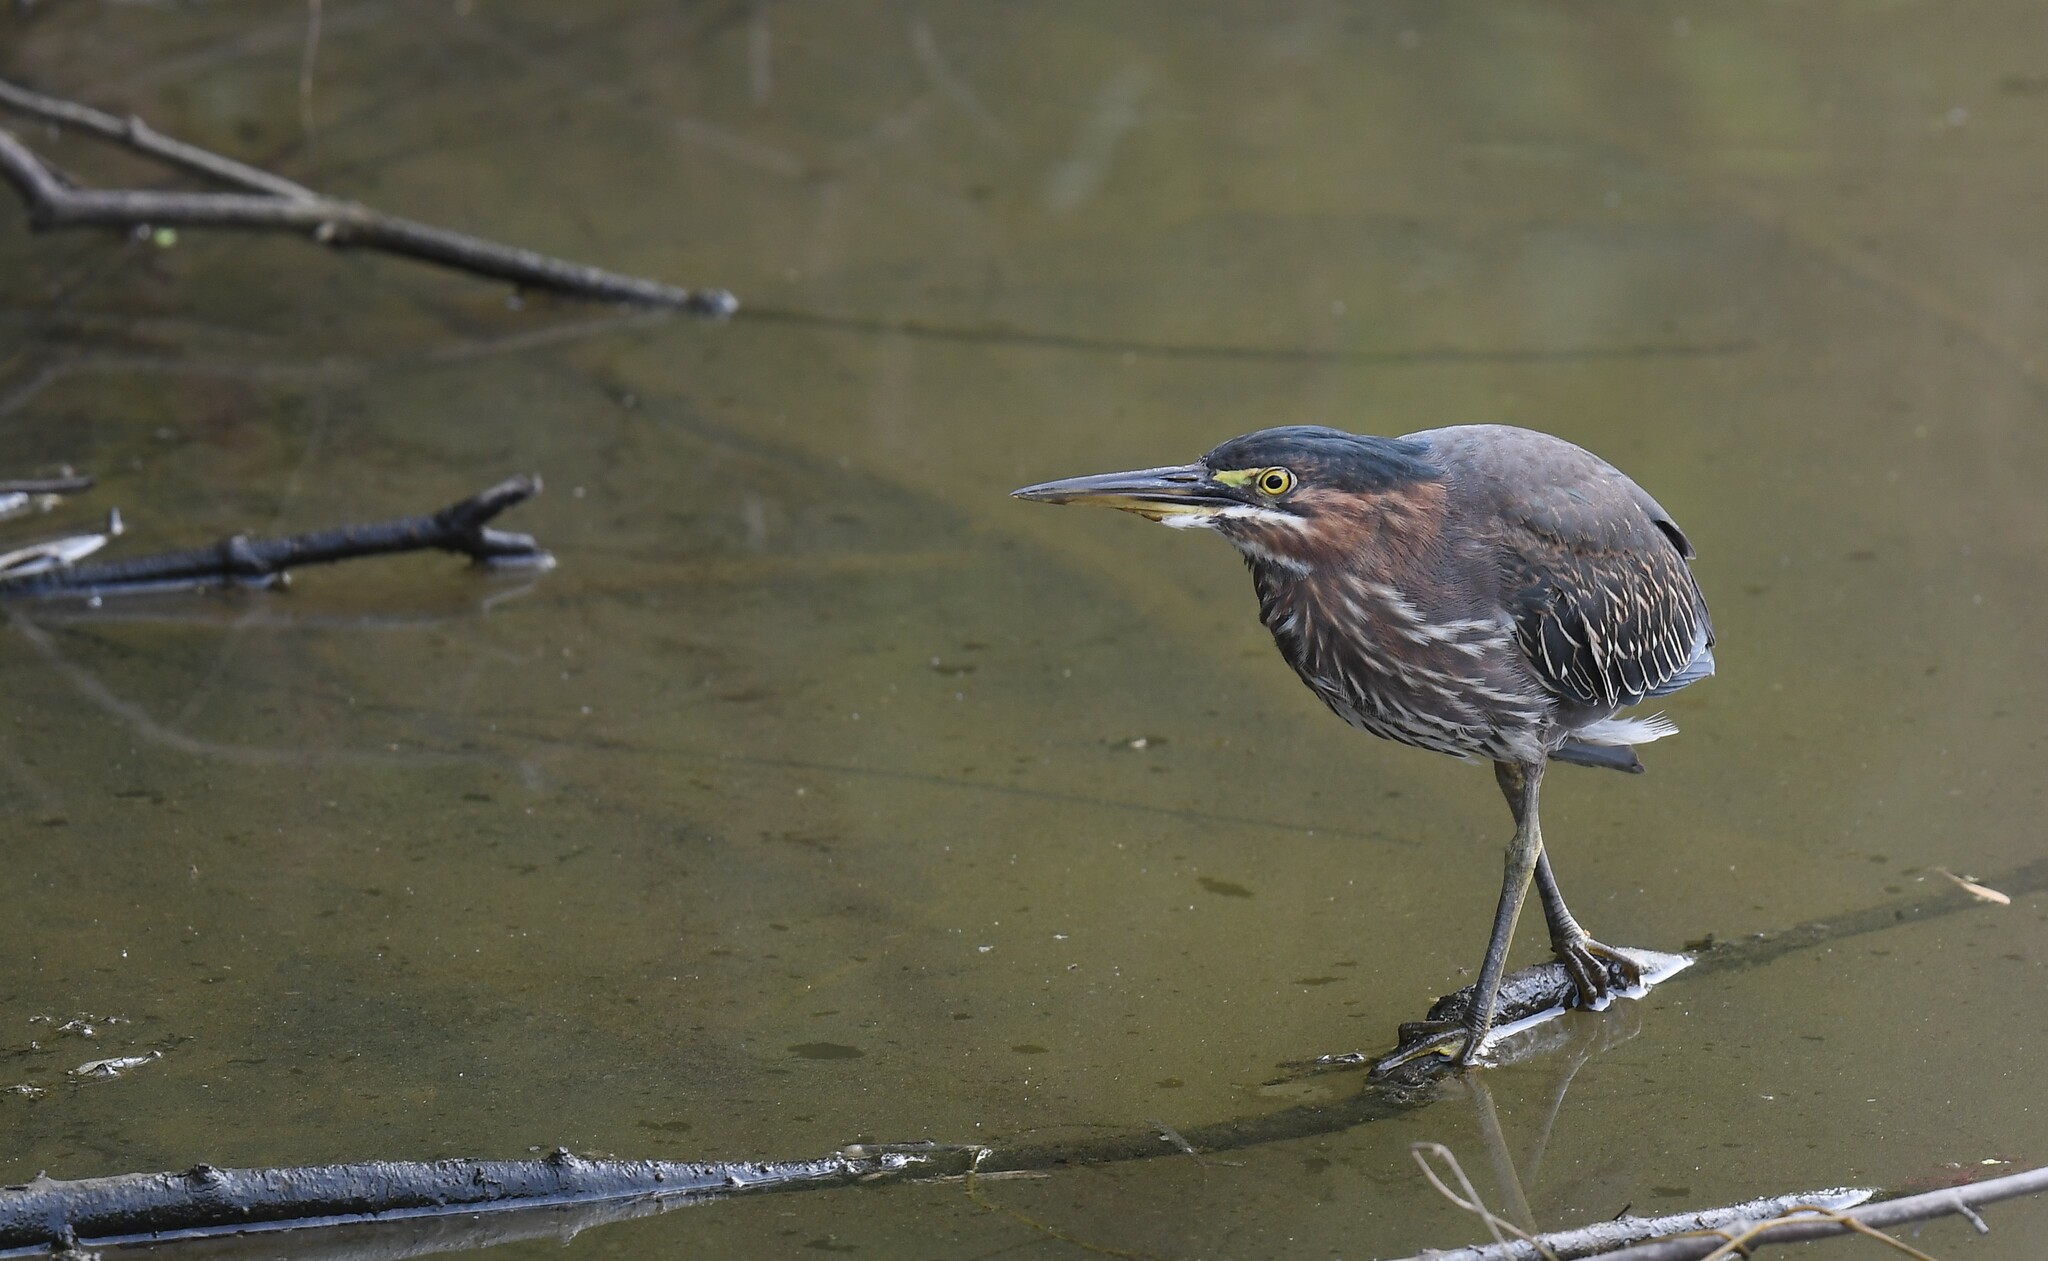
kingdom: Animalia
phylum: Chordata
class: Aves
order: Pelecaniformes
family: Ardeidae
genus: Butorides
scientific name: Butorides virescens
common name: Green heron
